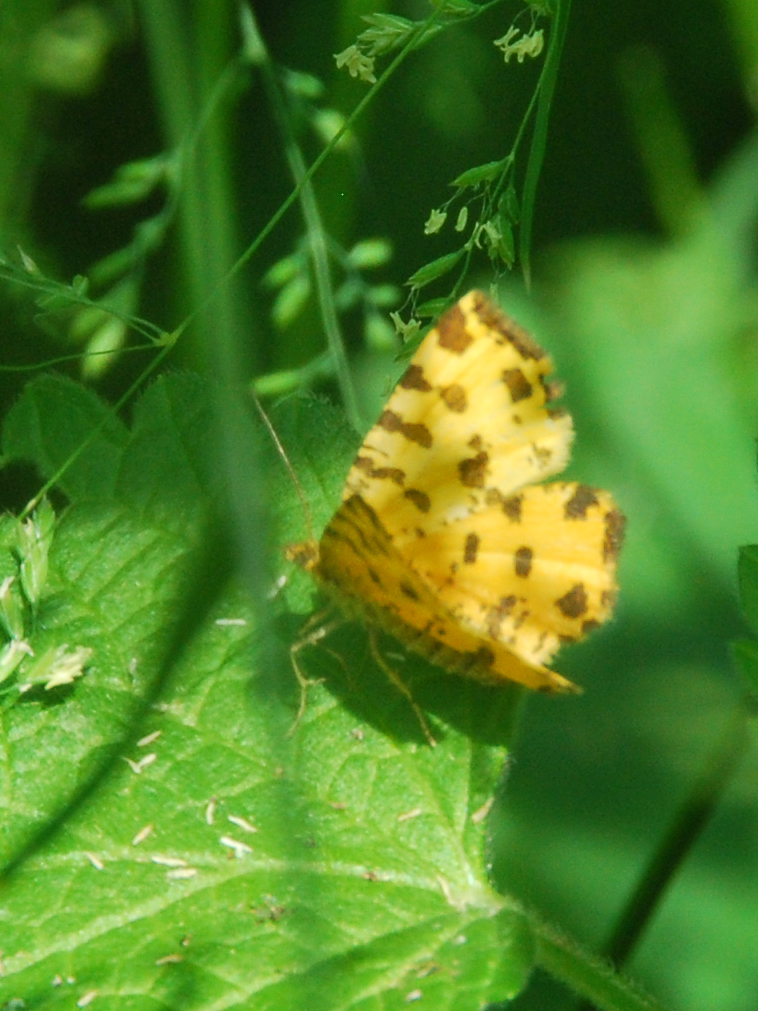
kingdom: Animalia
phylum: Arthropoda
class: Insecta
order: Lepidoptera
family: Geometridae
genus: Pseudopanthera
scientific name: Pseudopanthera macularia
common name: Speckled yellow
